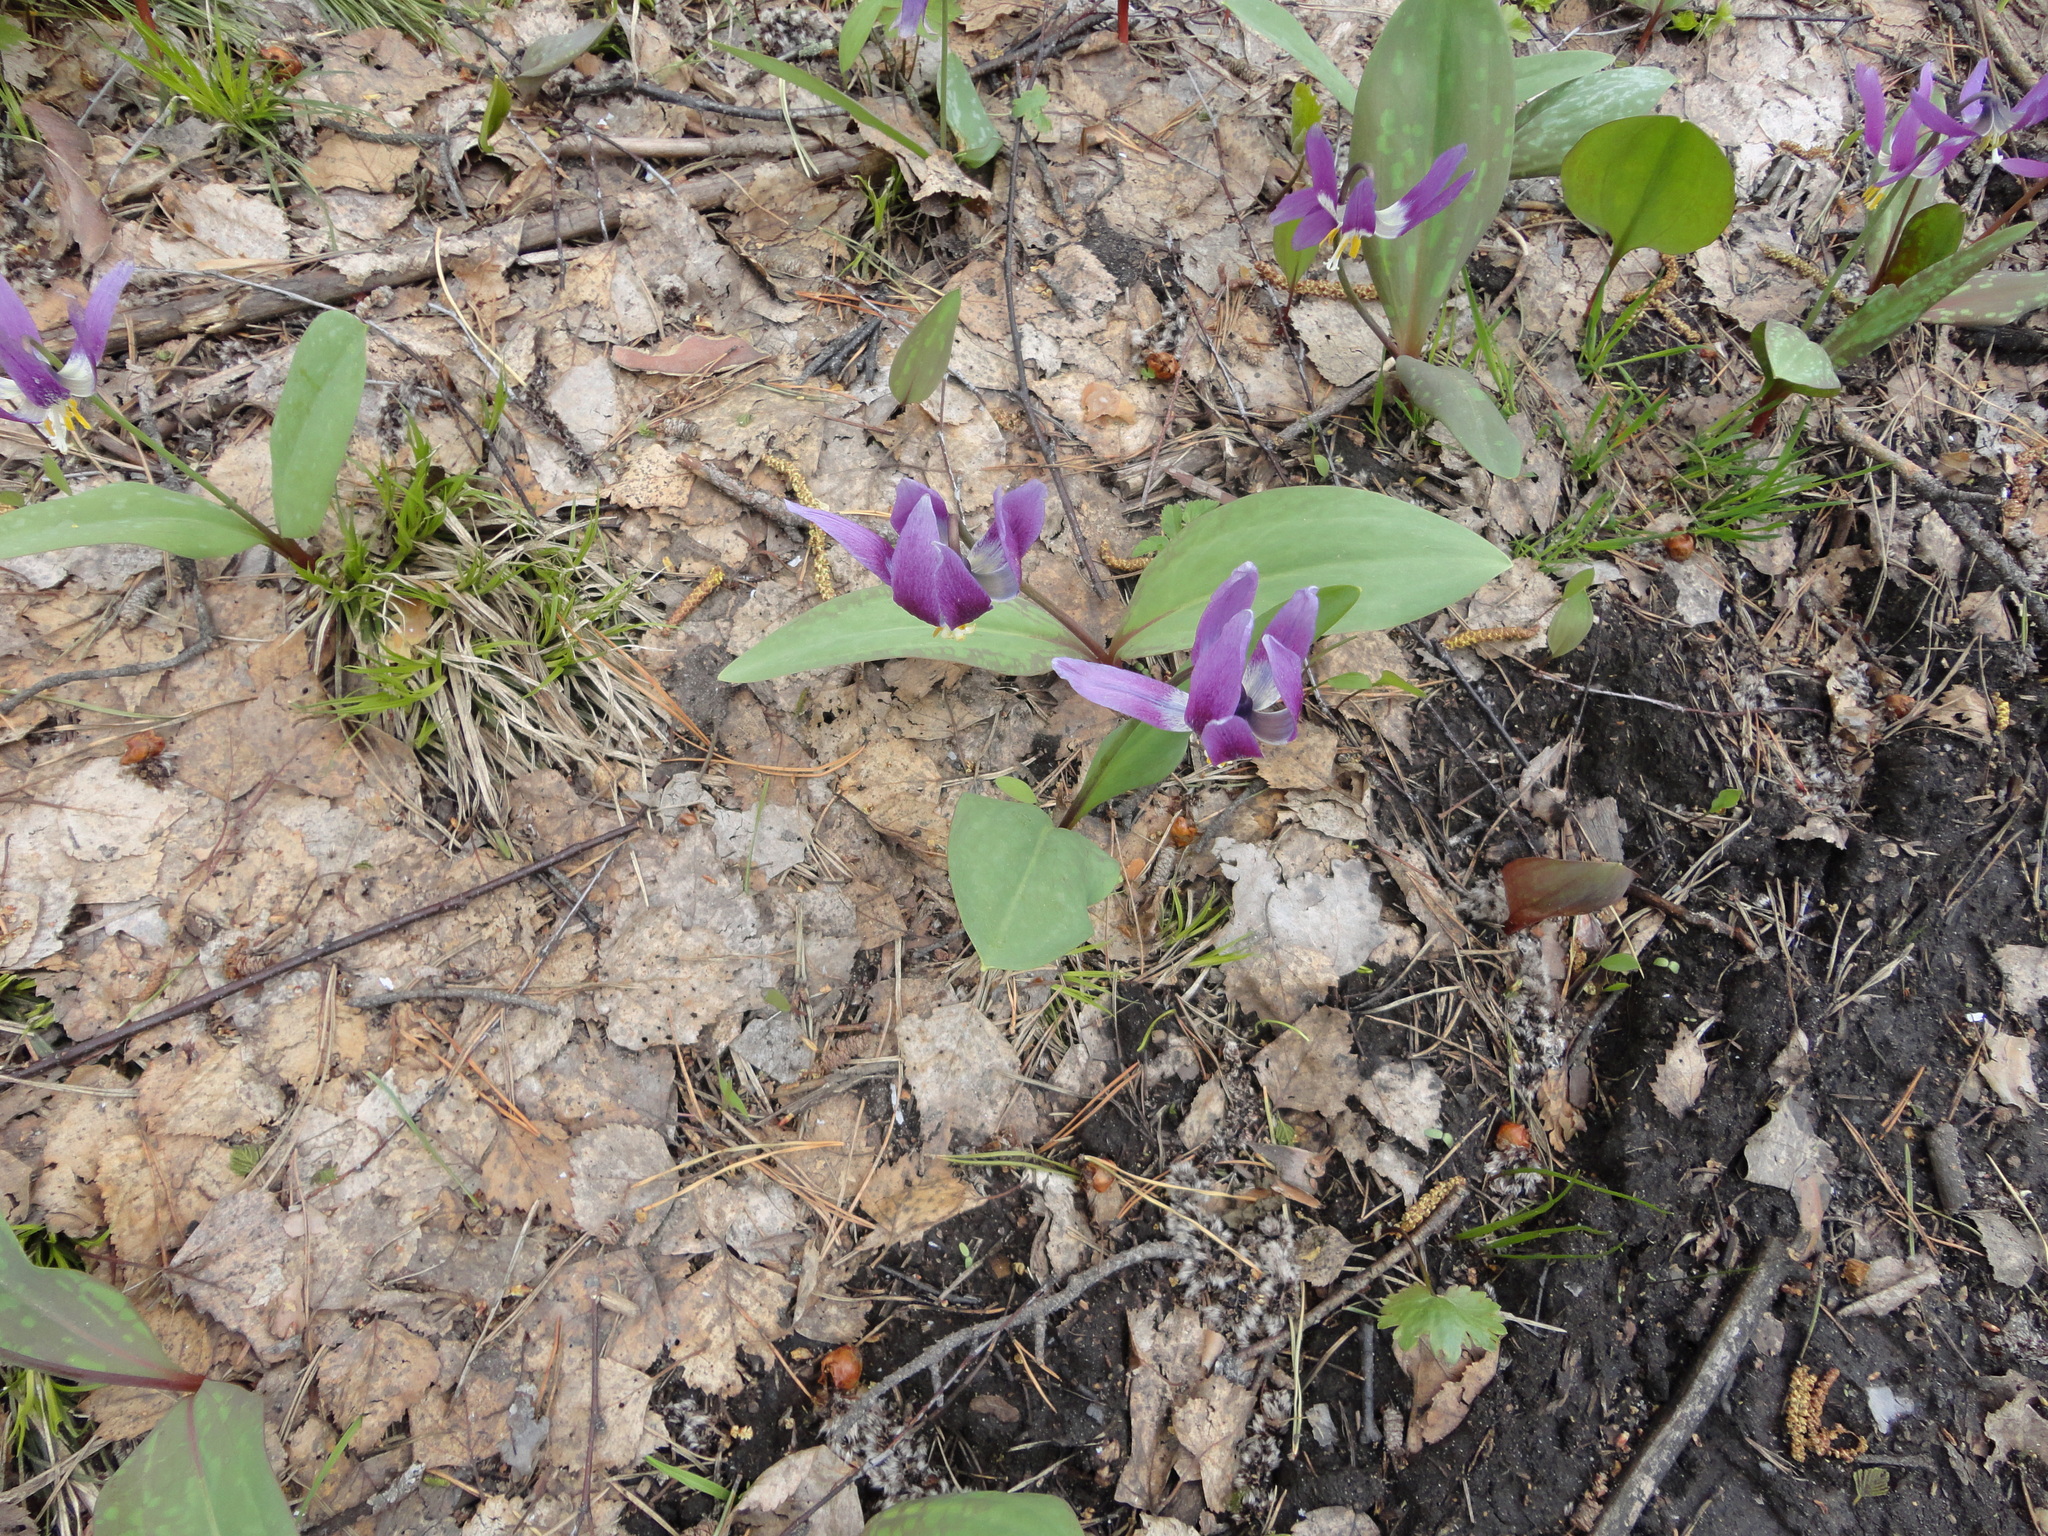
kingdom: Plantae
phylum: Tracheophyta
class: Liliopsida
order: Liliales
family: Liliaceae
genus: Erythronium
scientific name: Erythronium sibiricum
